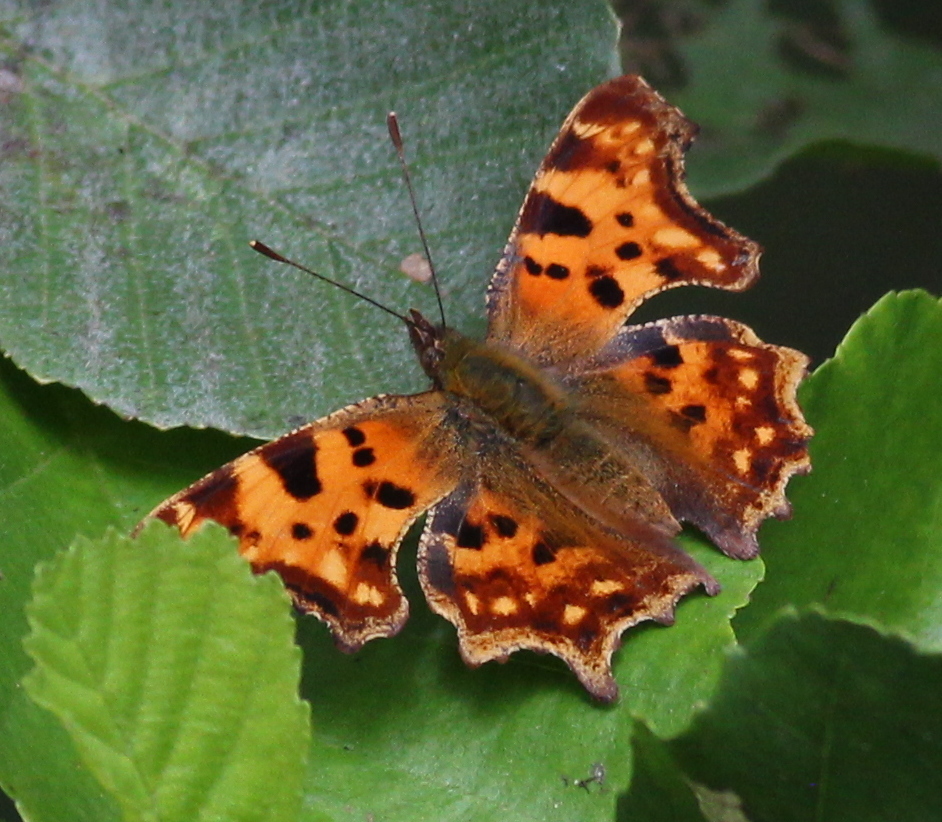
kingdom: Animalia
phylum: Arthropoda
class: Insecta
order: Lepidoptera
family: Nymphalidae
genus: Polygonia
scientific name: Polygonia c-album
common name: Comma
